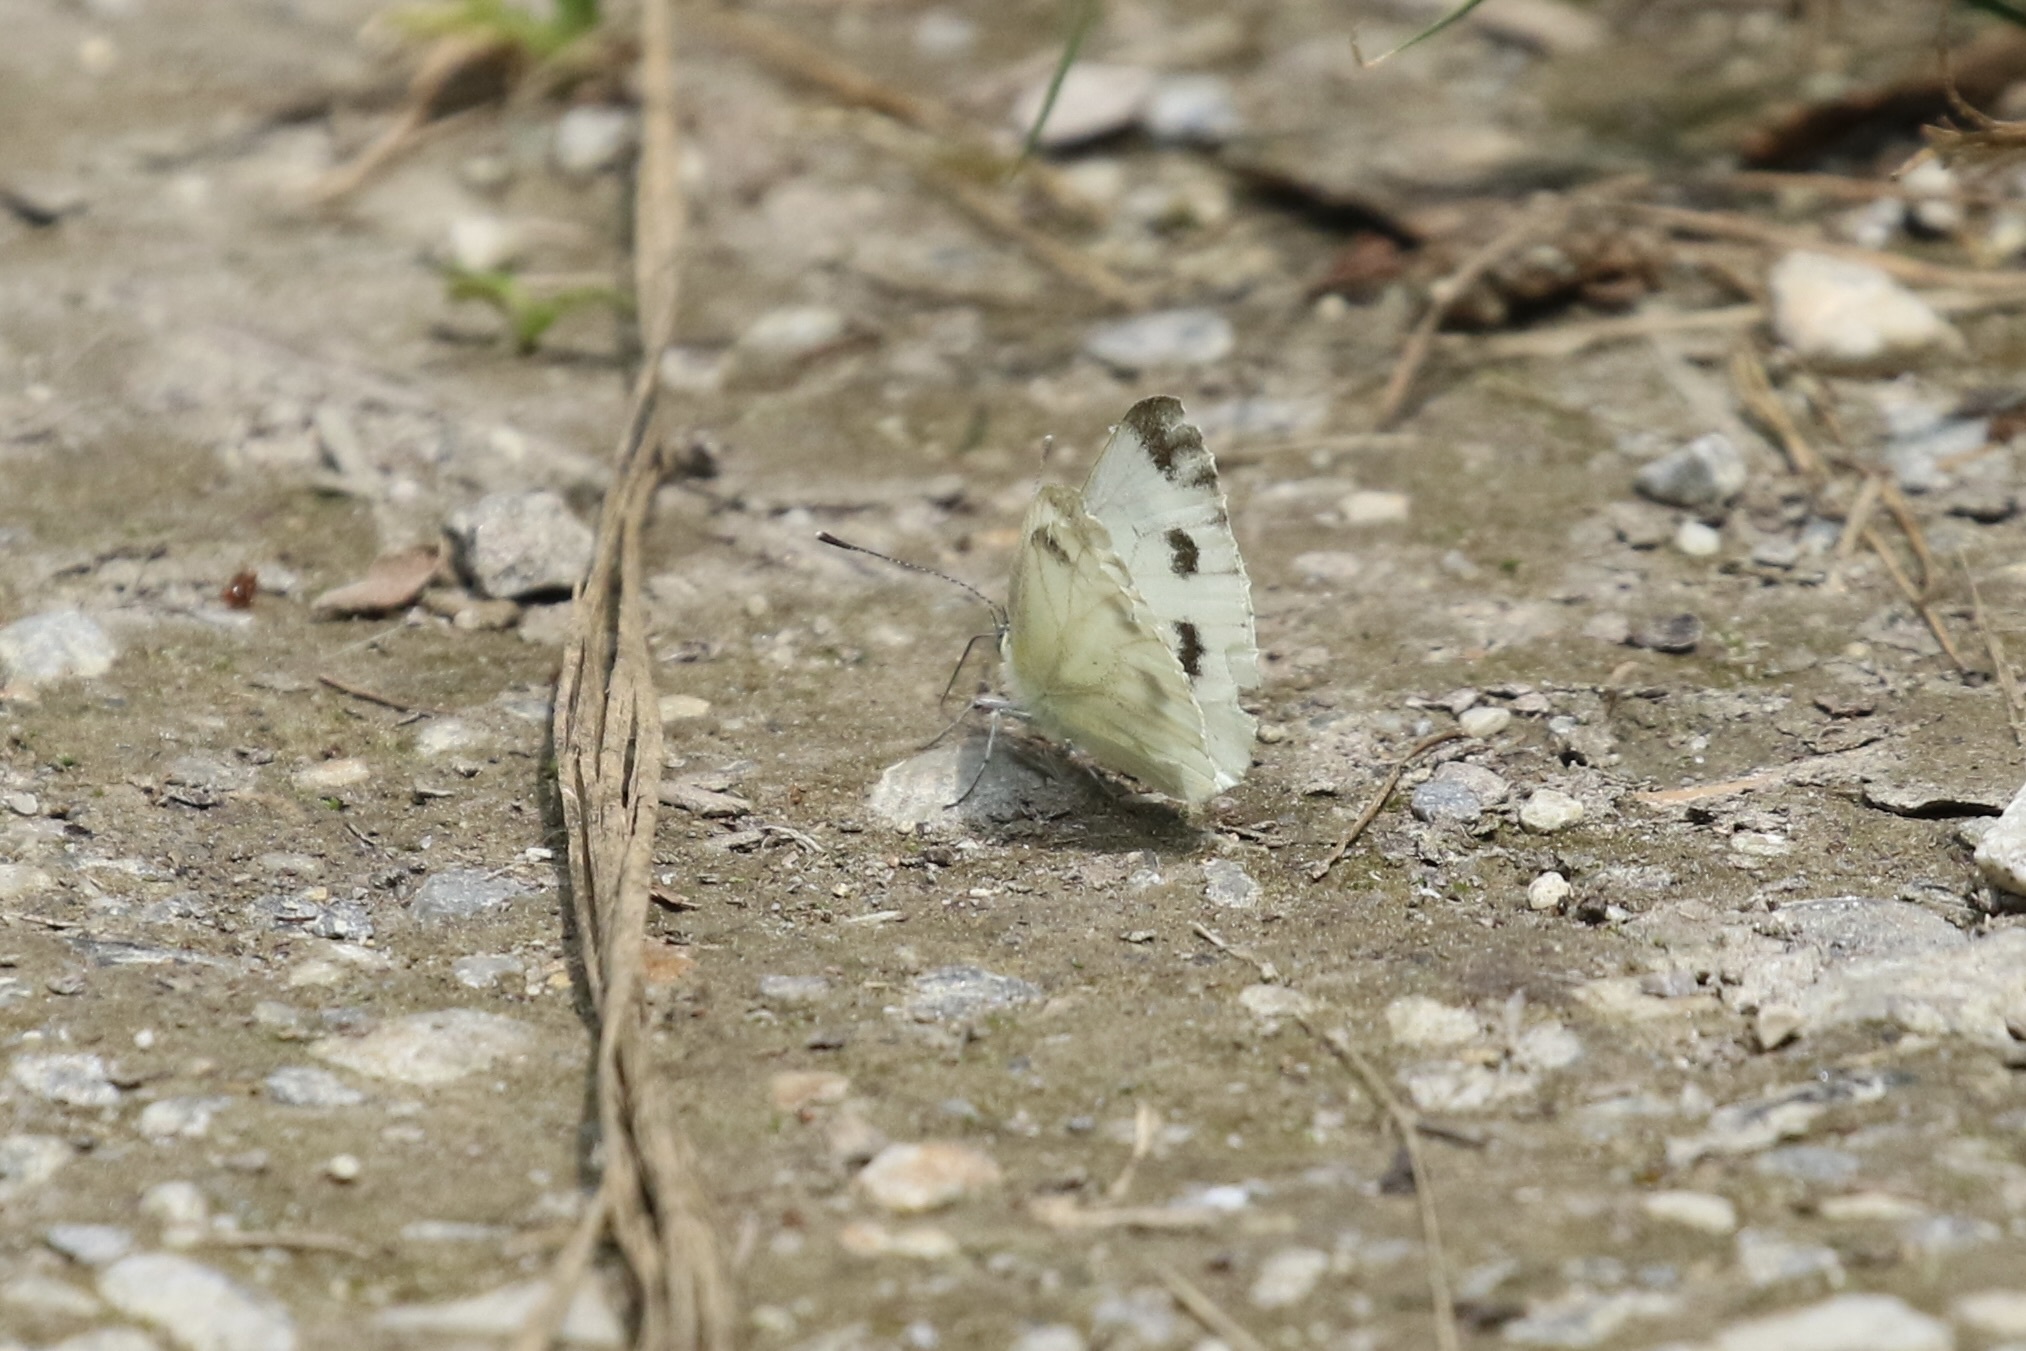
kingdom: Animalia
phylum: Arthropoda
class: Insecta
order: Lepidoptera
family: Pieridae
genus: Pieris
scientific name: Pieris napi
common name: Green-veined white
